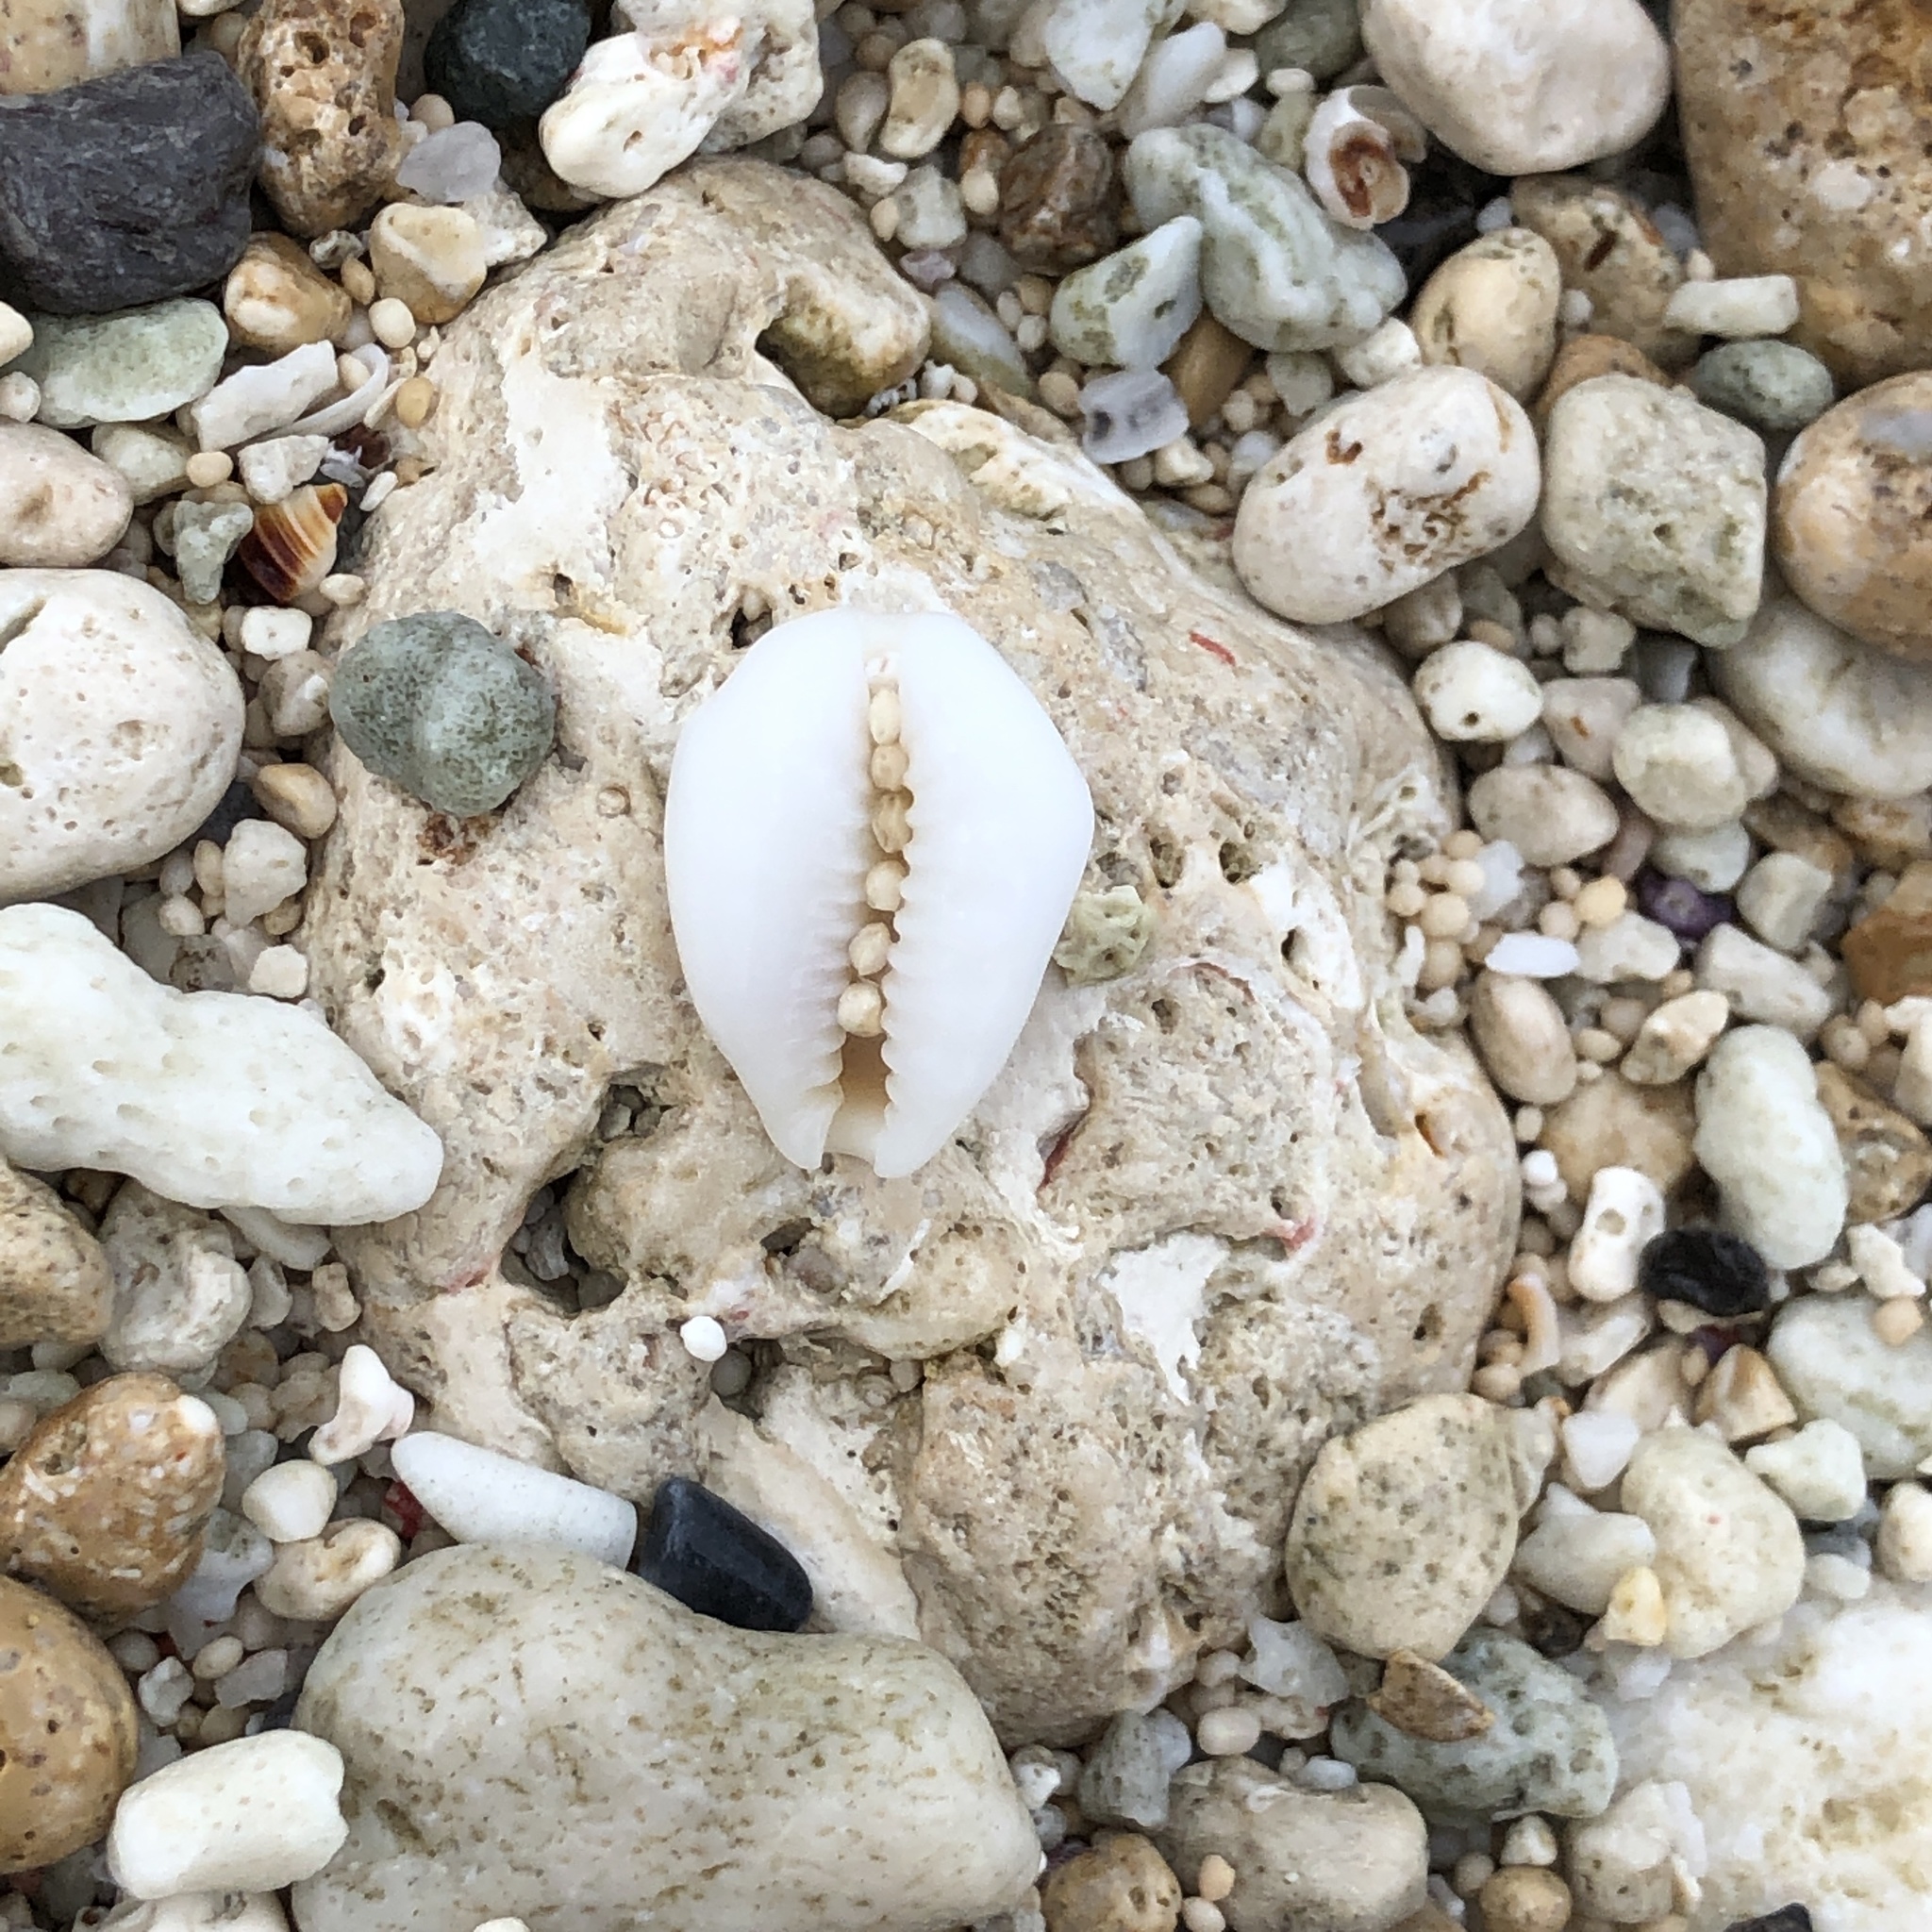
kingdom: Animalia
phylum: Mollusca
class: Gastropoda
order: Littorinimorpha
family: Cypraeidae
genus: Monetaria
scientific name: Monetaria moneta
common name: Money cowrie
